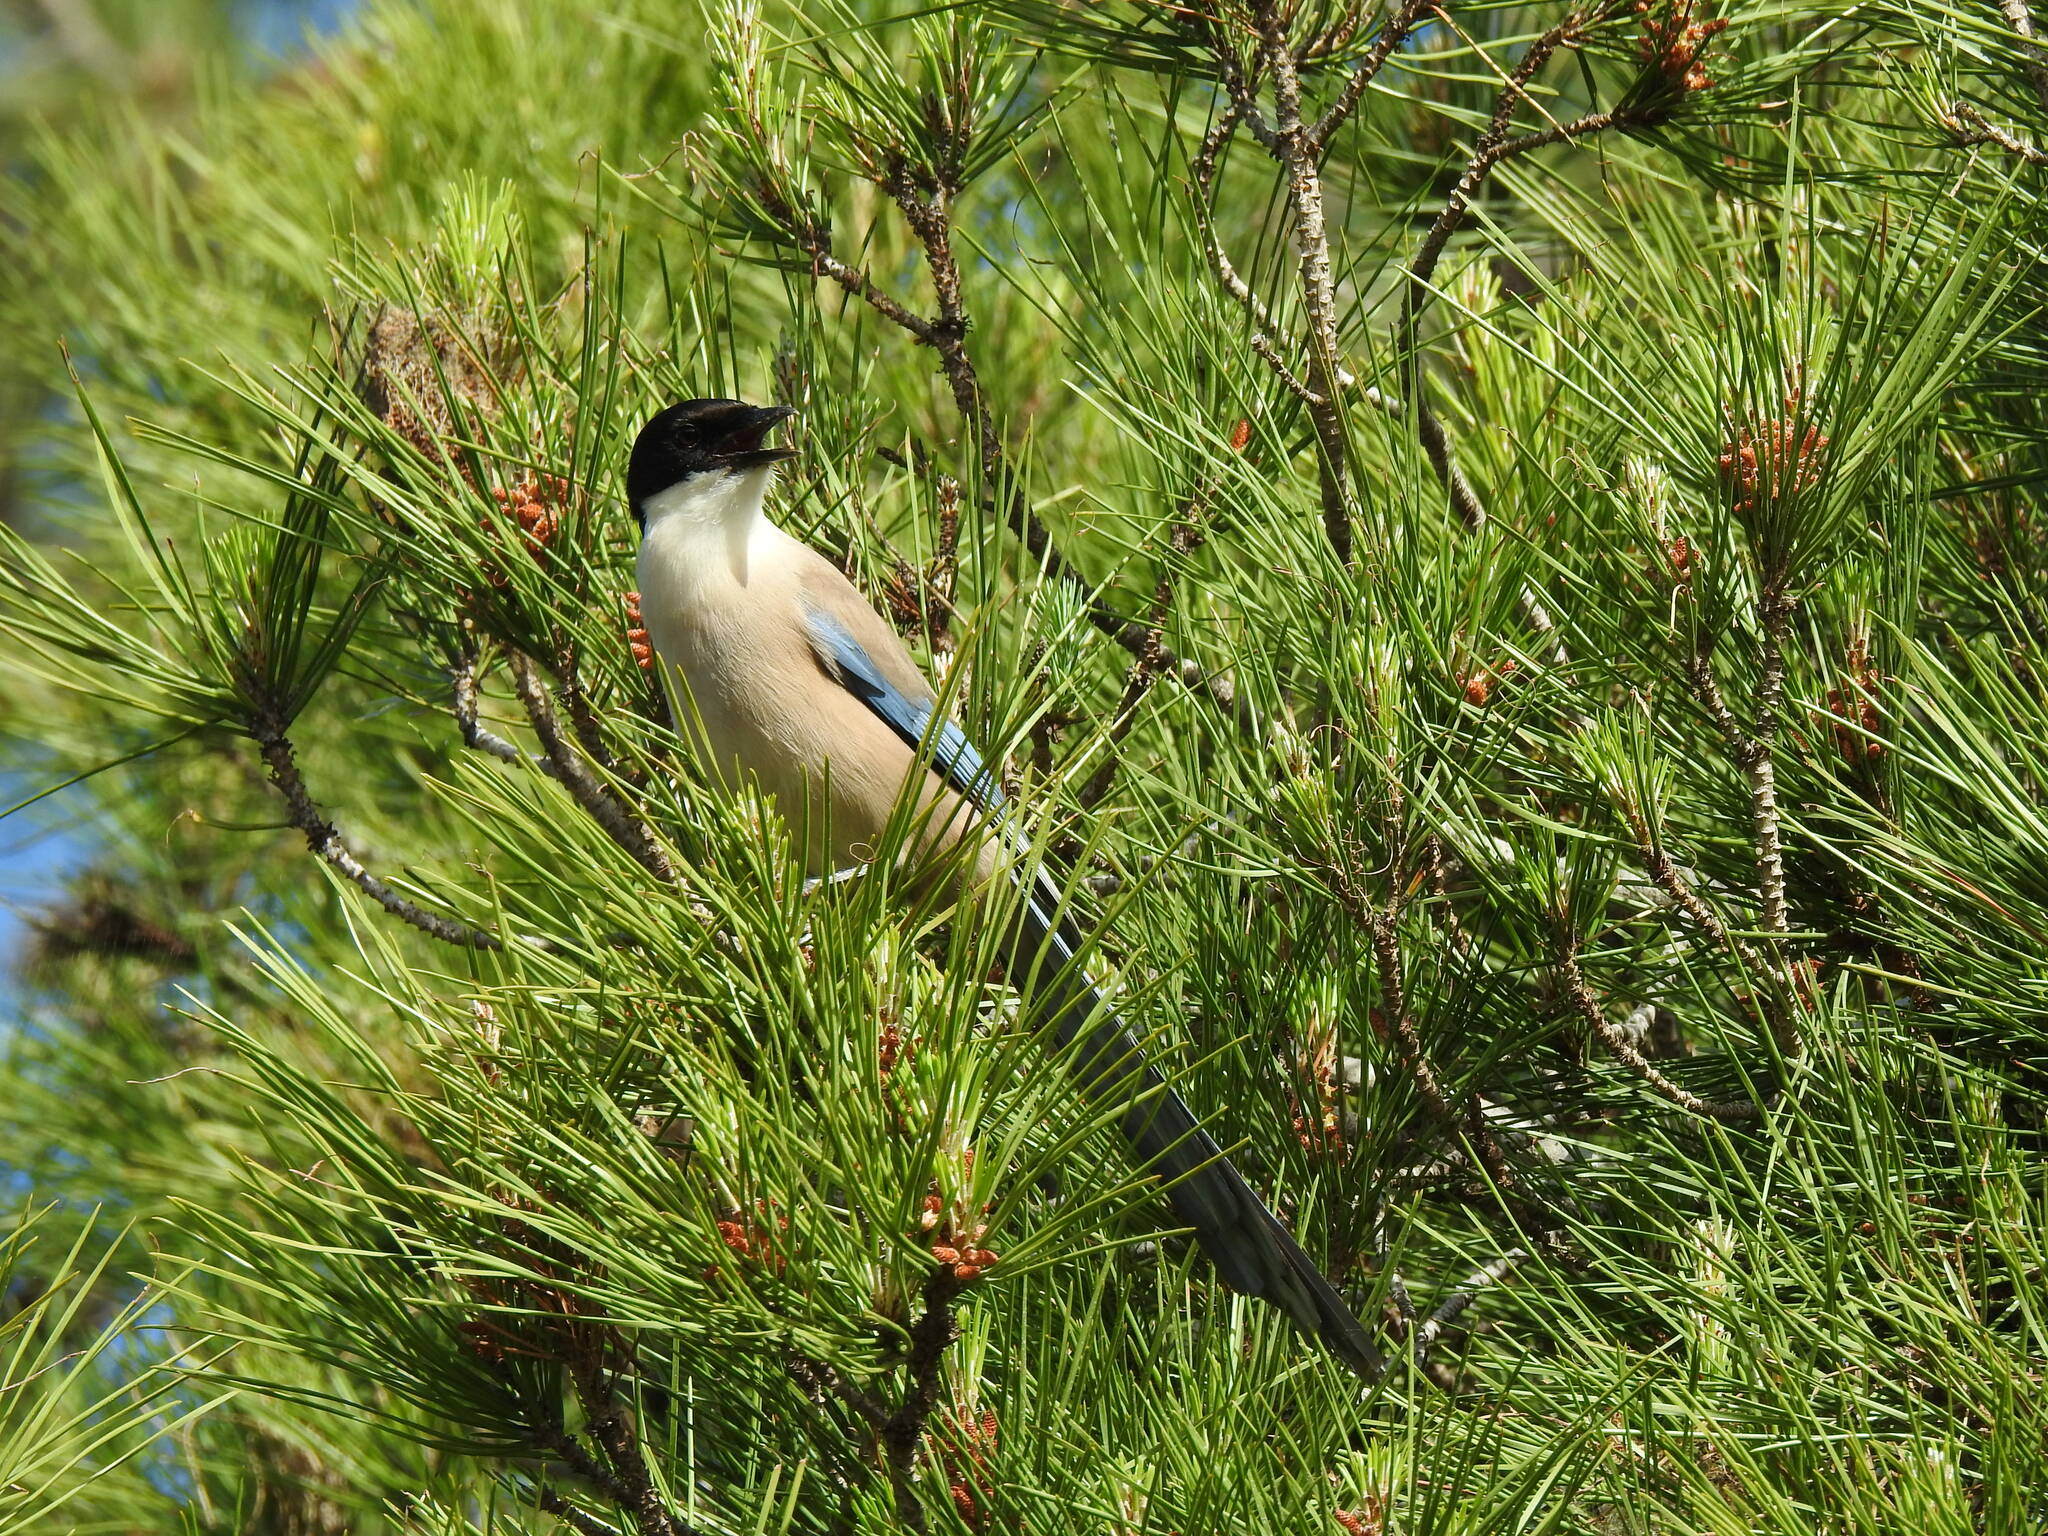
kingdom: Animalia
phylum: Chordata
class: Aves
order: Passeriformes
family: Corvidae
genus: Cyanopica
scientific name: Cyanopica cooki
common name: Iberian magpie
